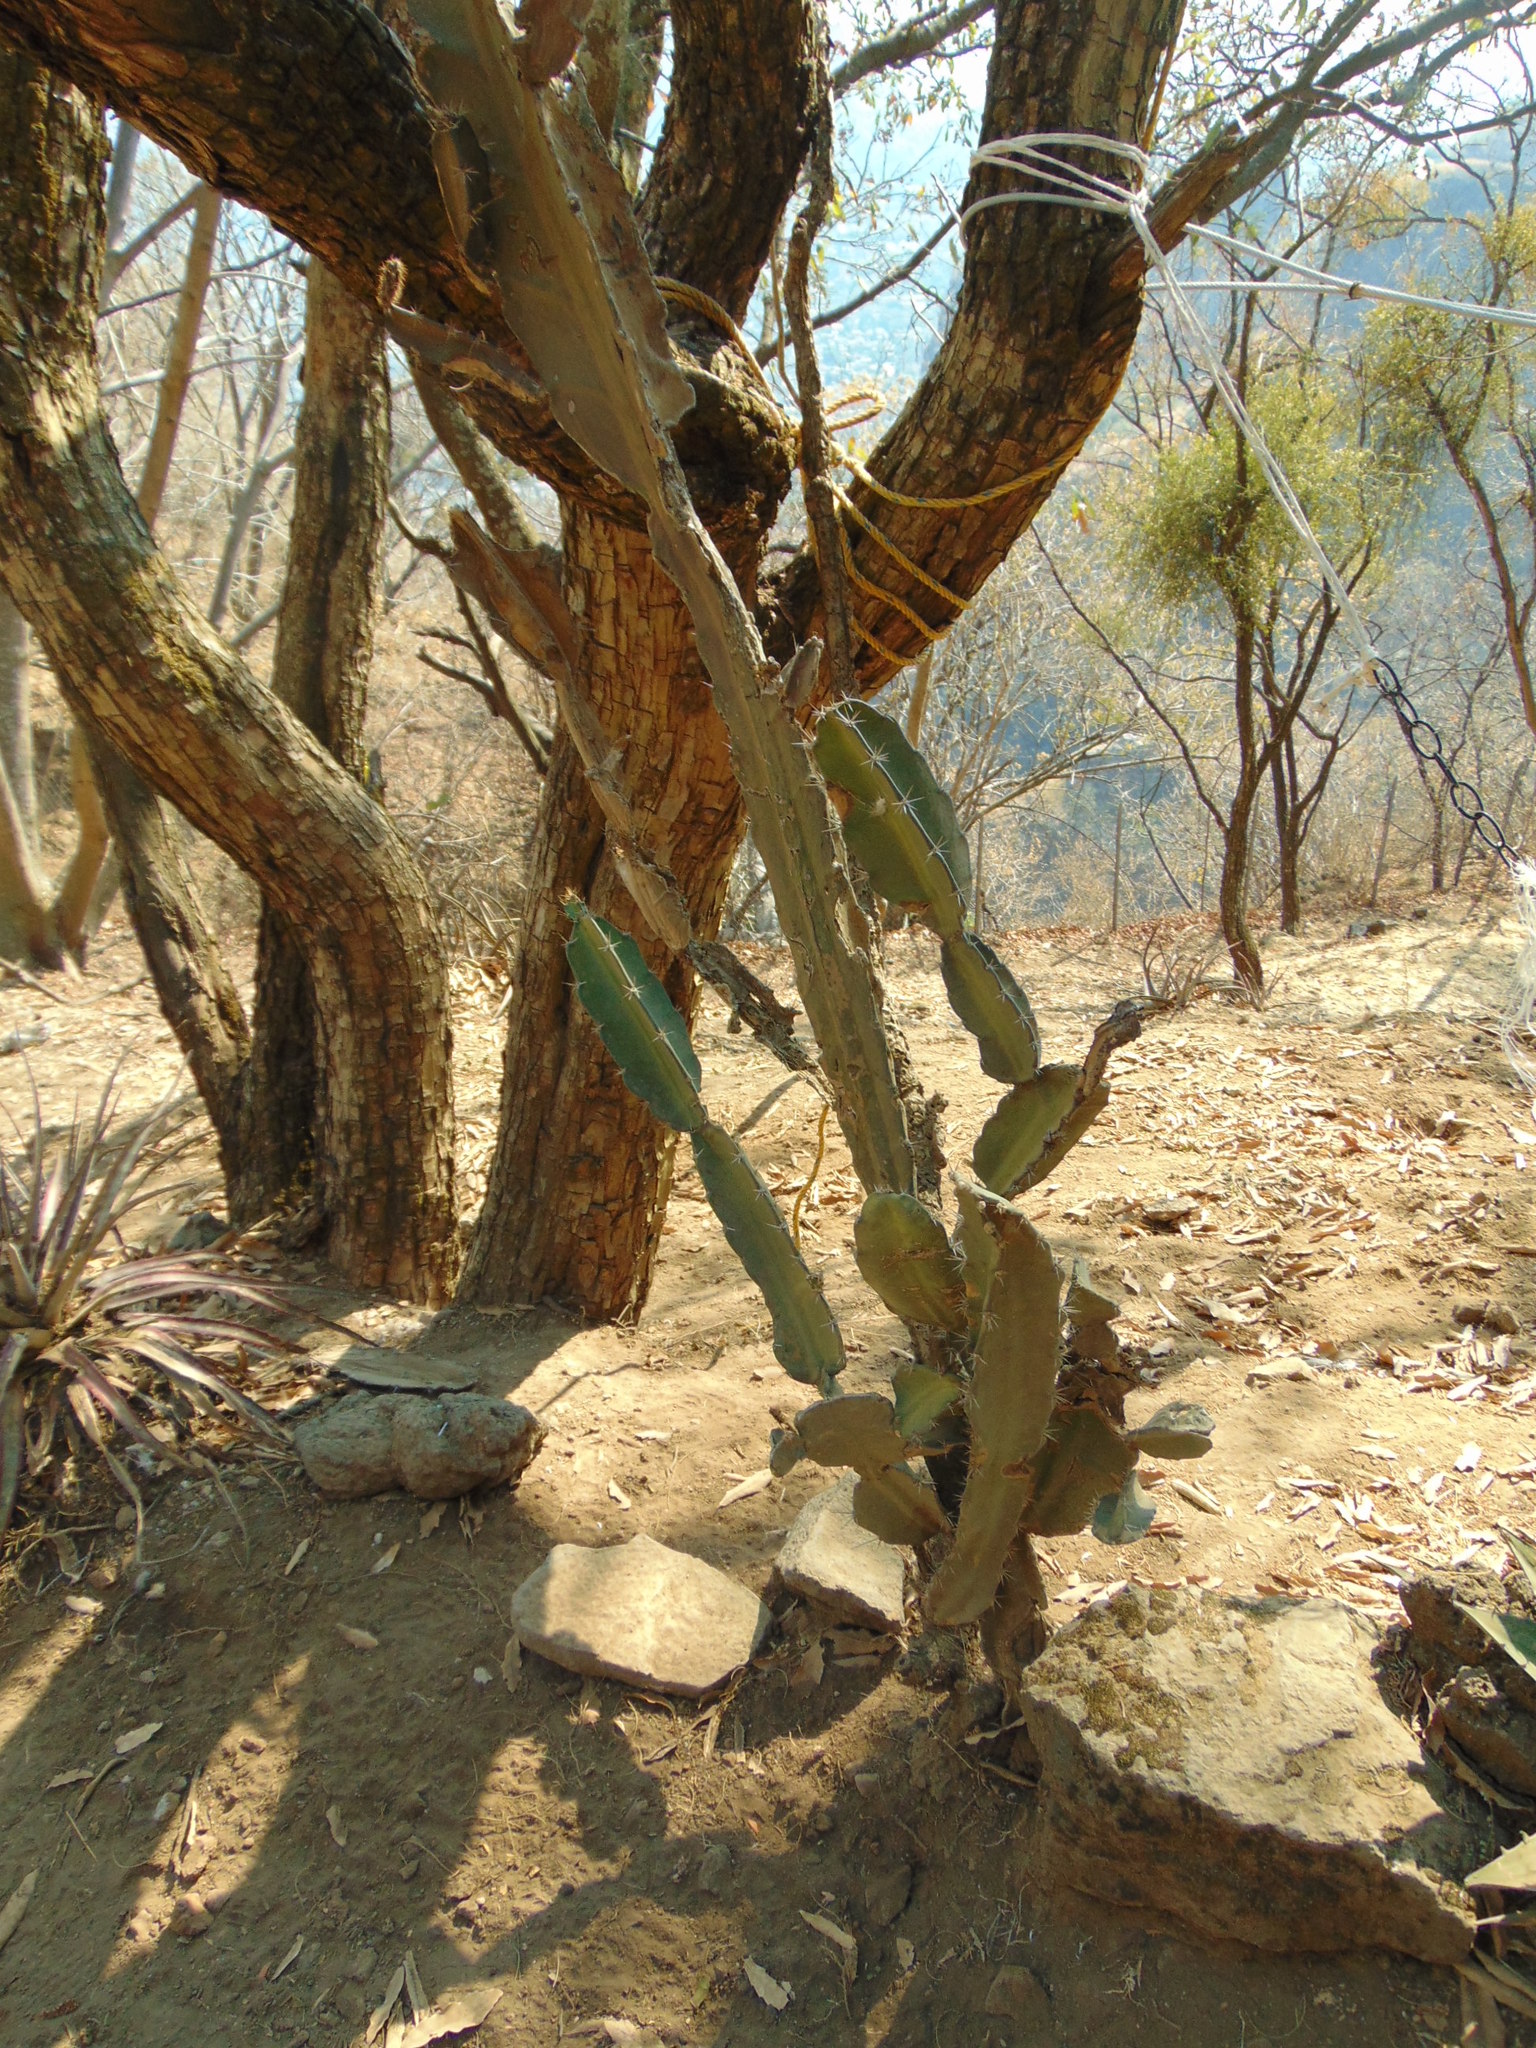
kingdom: Plantae
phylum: Tracheophyta
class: Magnoliopsida
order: Caryophyllales
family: Cactaceae
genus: Acanthocereus
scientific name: Acanthocereus tetragonus
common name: Triangle cactus
